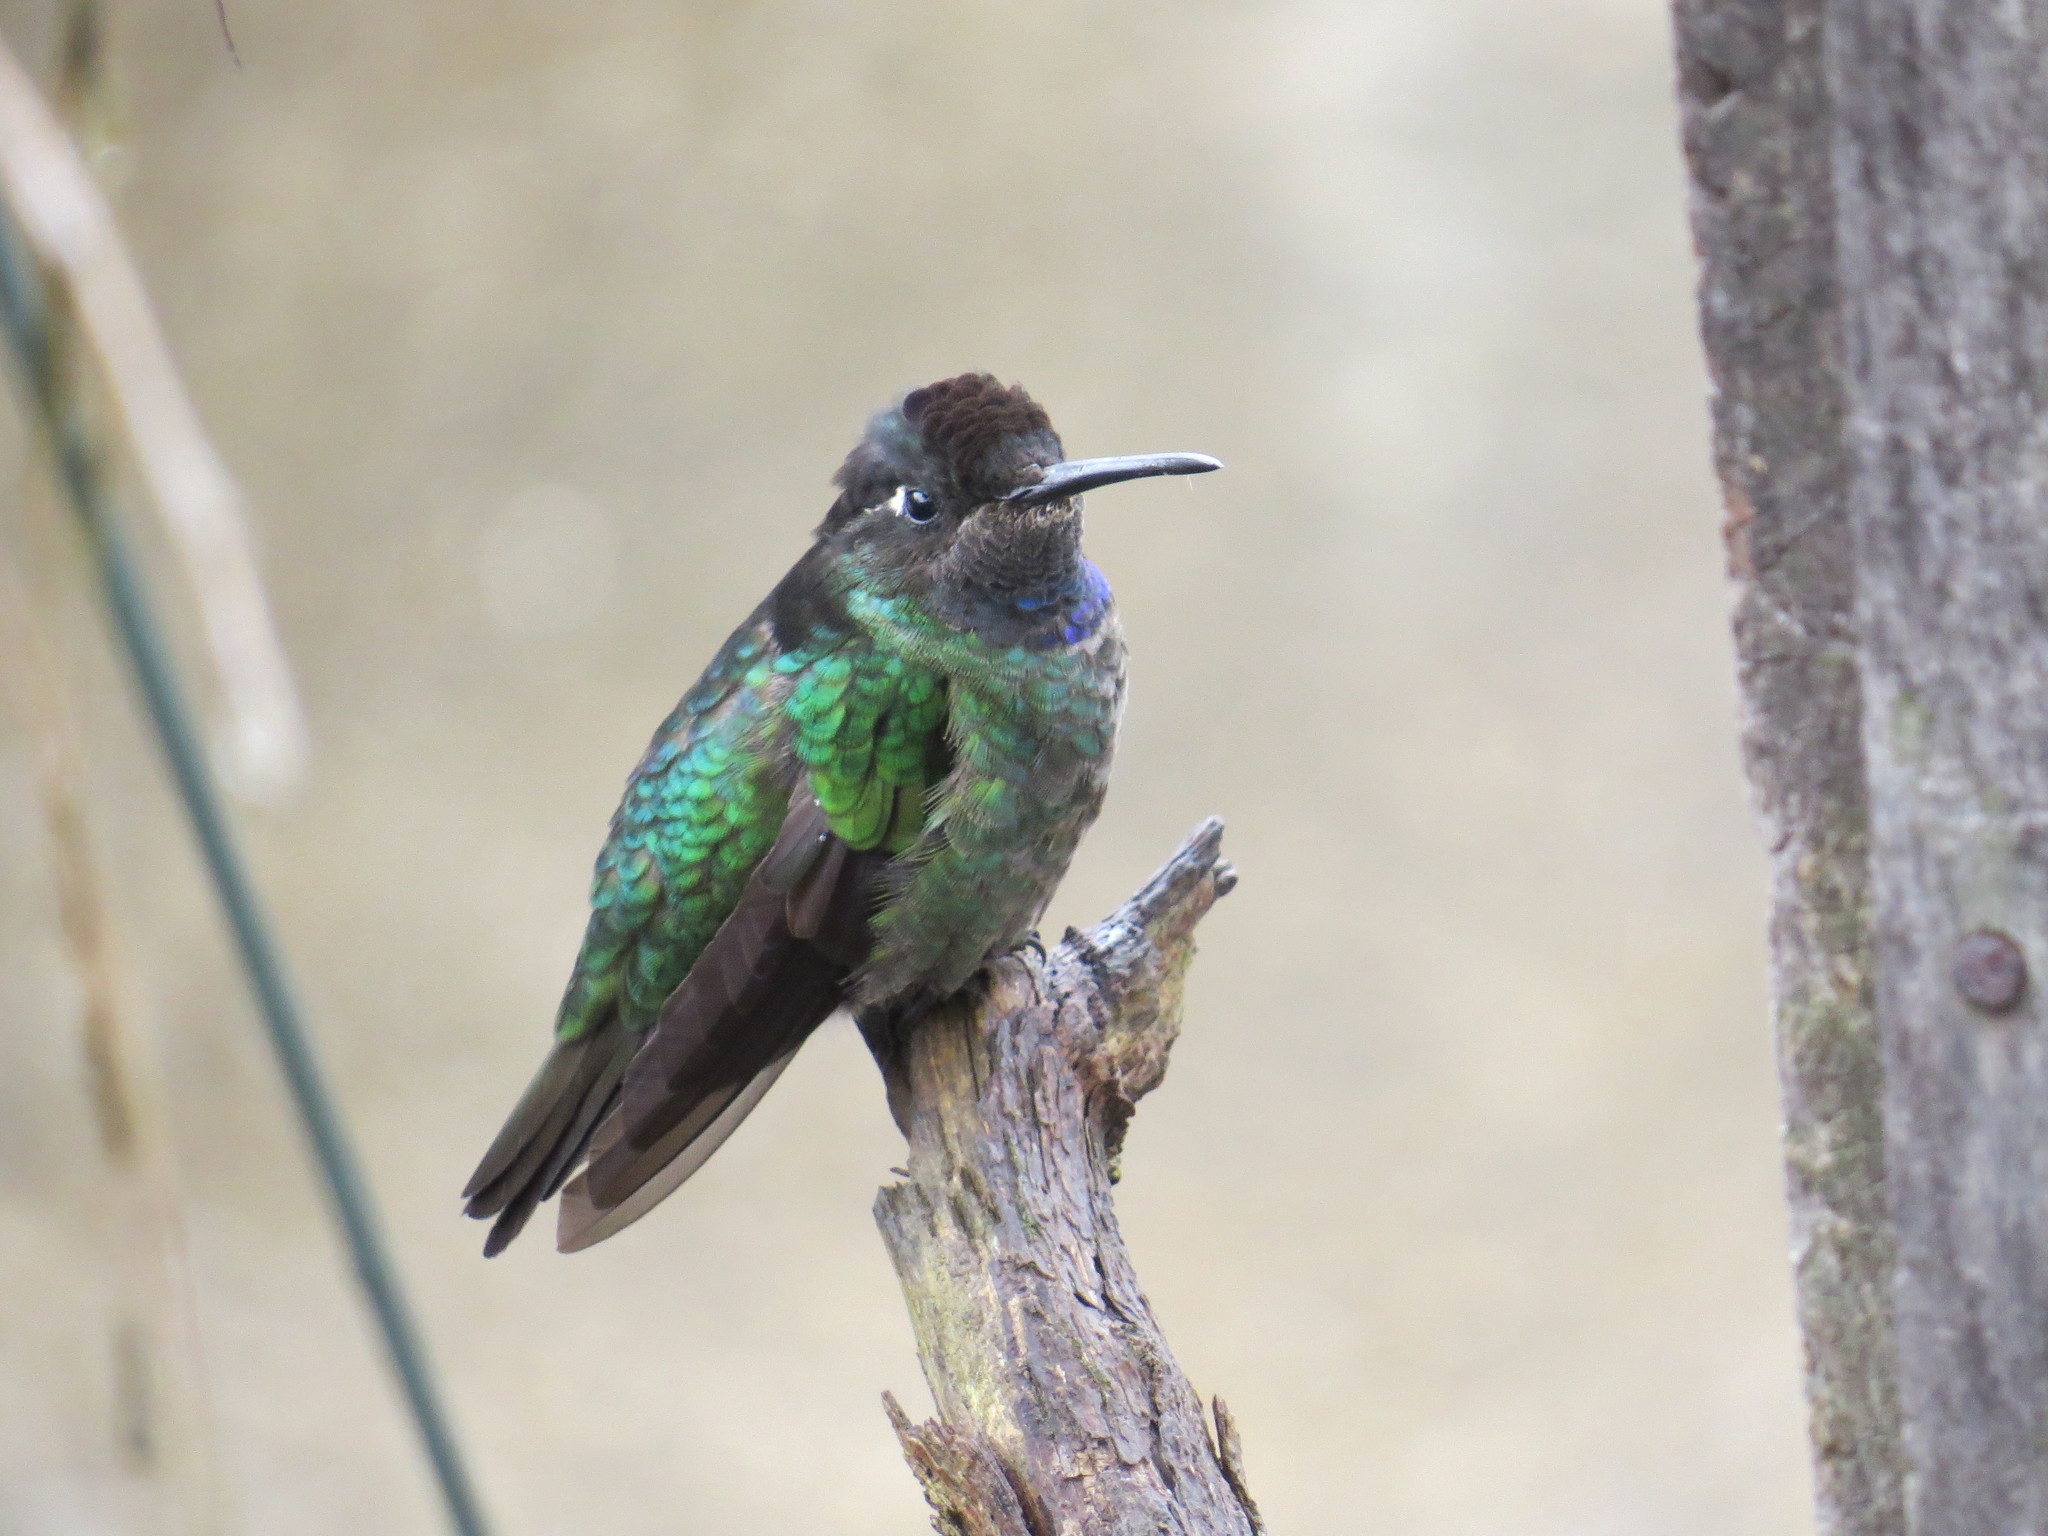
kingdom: Animalia
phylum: Chordata
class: Aves
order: Apodiformes
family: Trochilidae
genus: Eugenes
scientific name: Eugenes spectabilis
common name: Talamanca hummingbird
